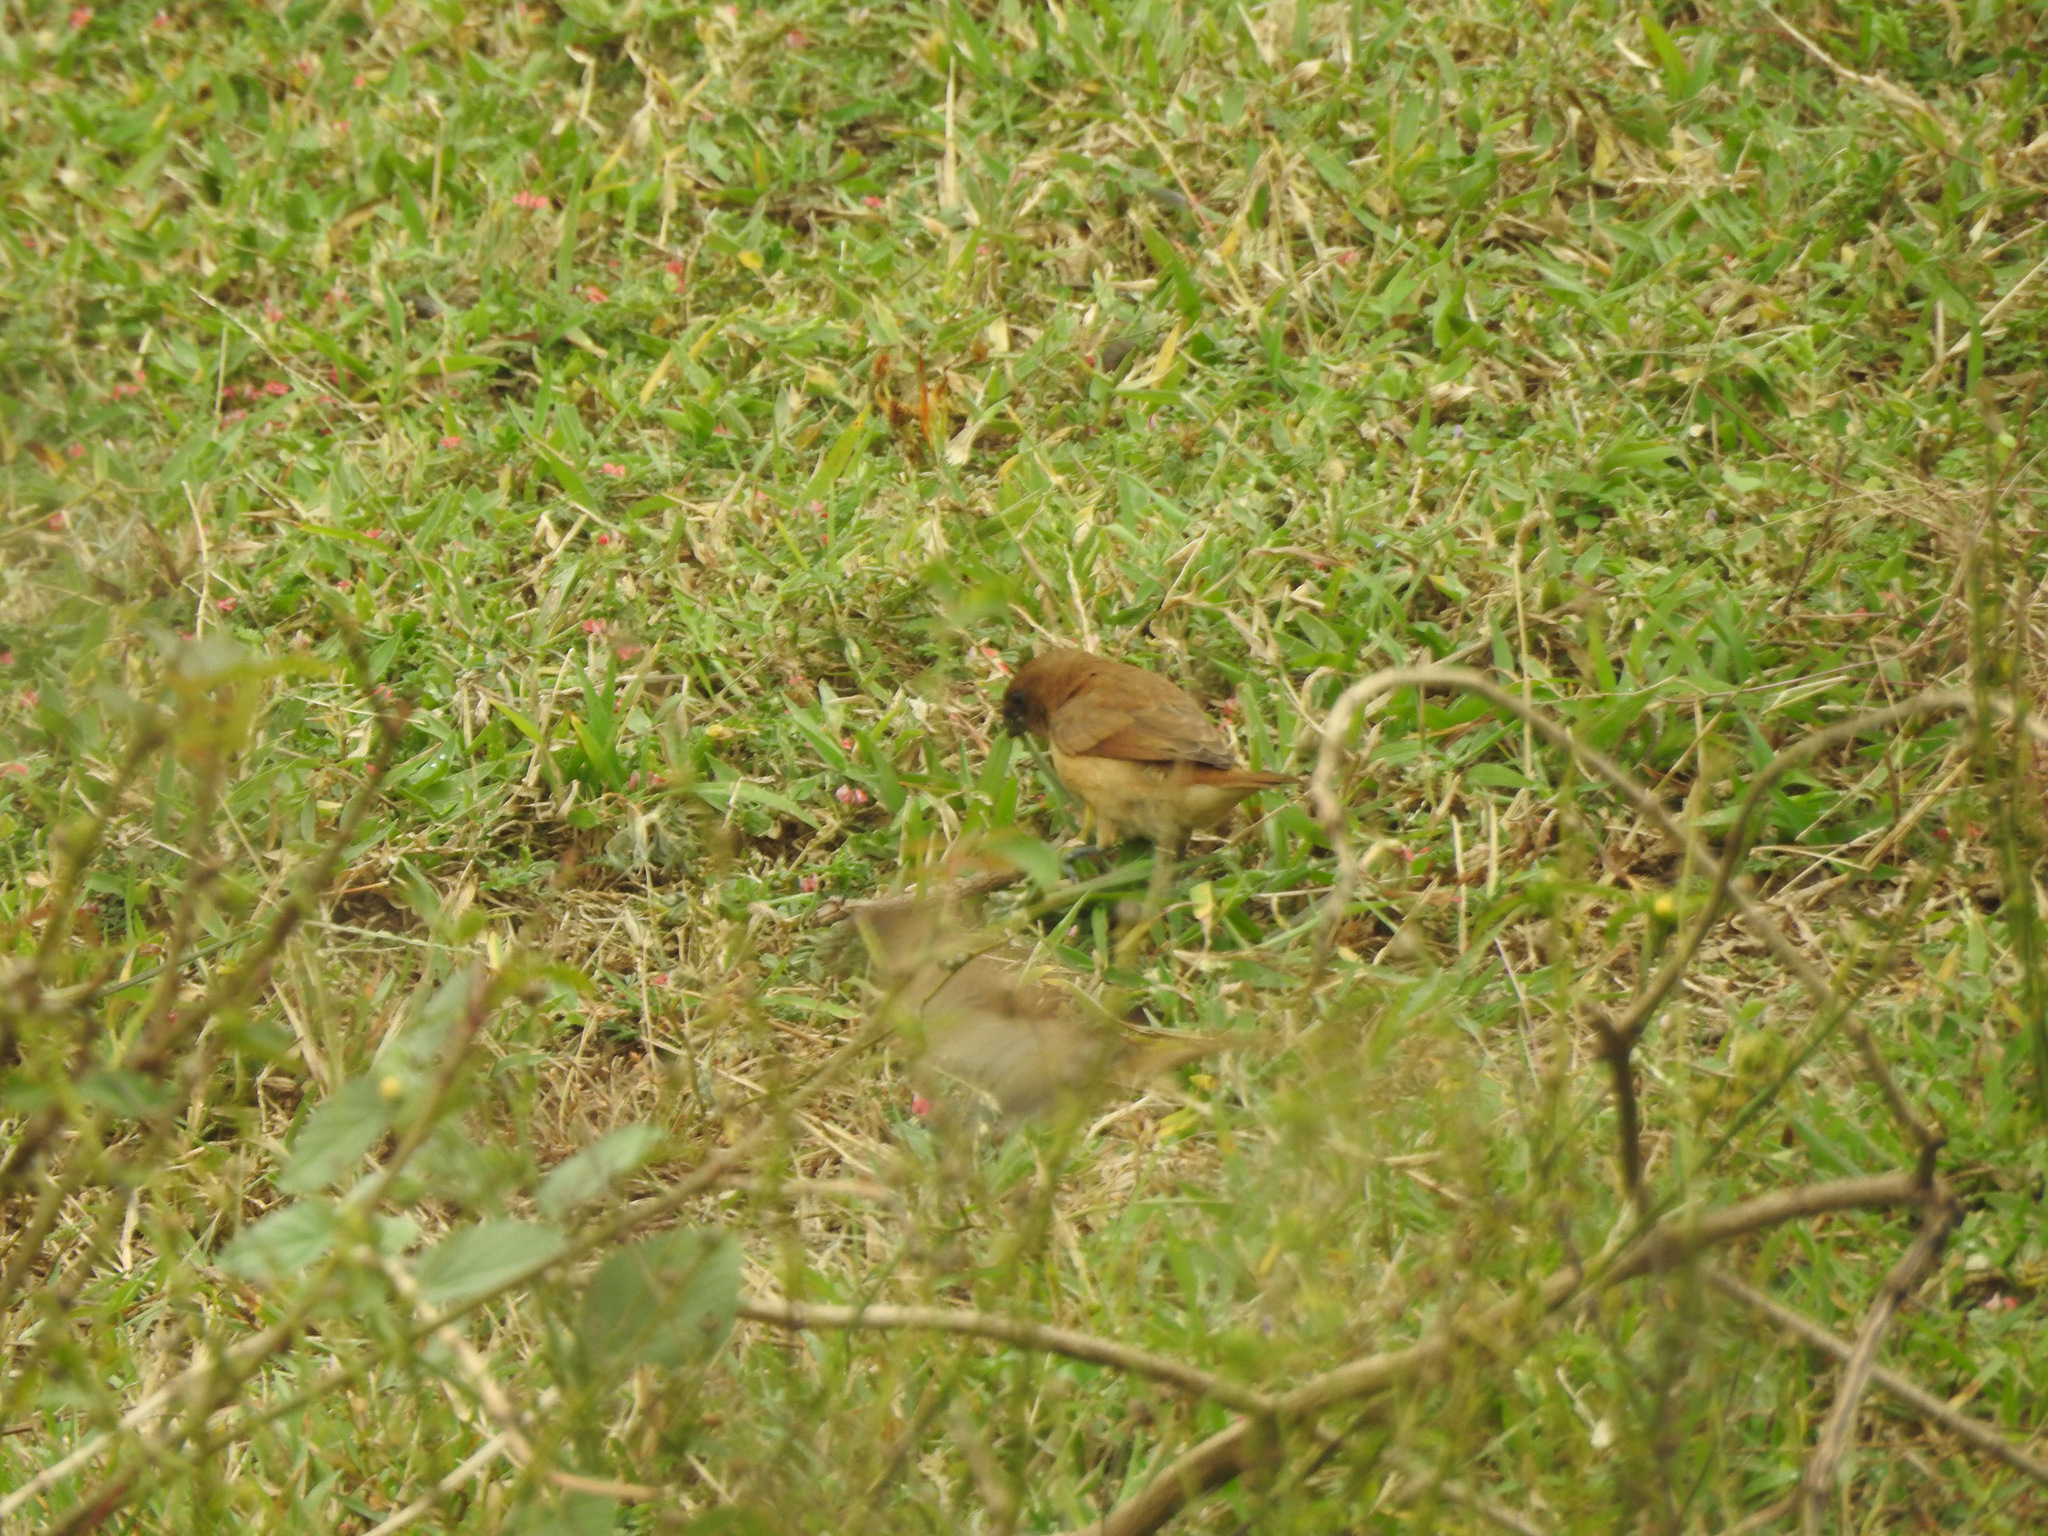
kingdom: Animalia
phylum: Chordata
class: Aves
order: Passeriformes
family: Estrildidae
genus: Lonchura
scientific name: Lonchura punctulata
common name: Scaly-breasted munia
